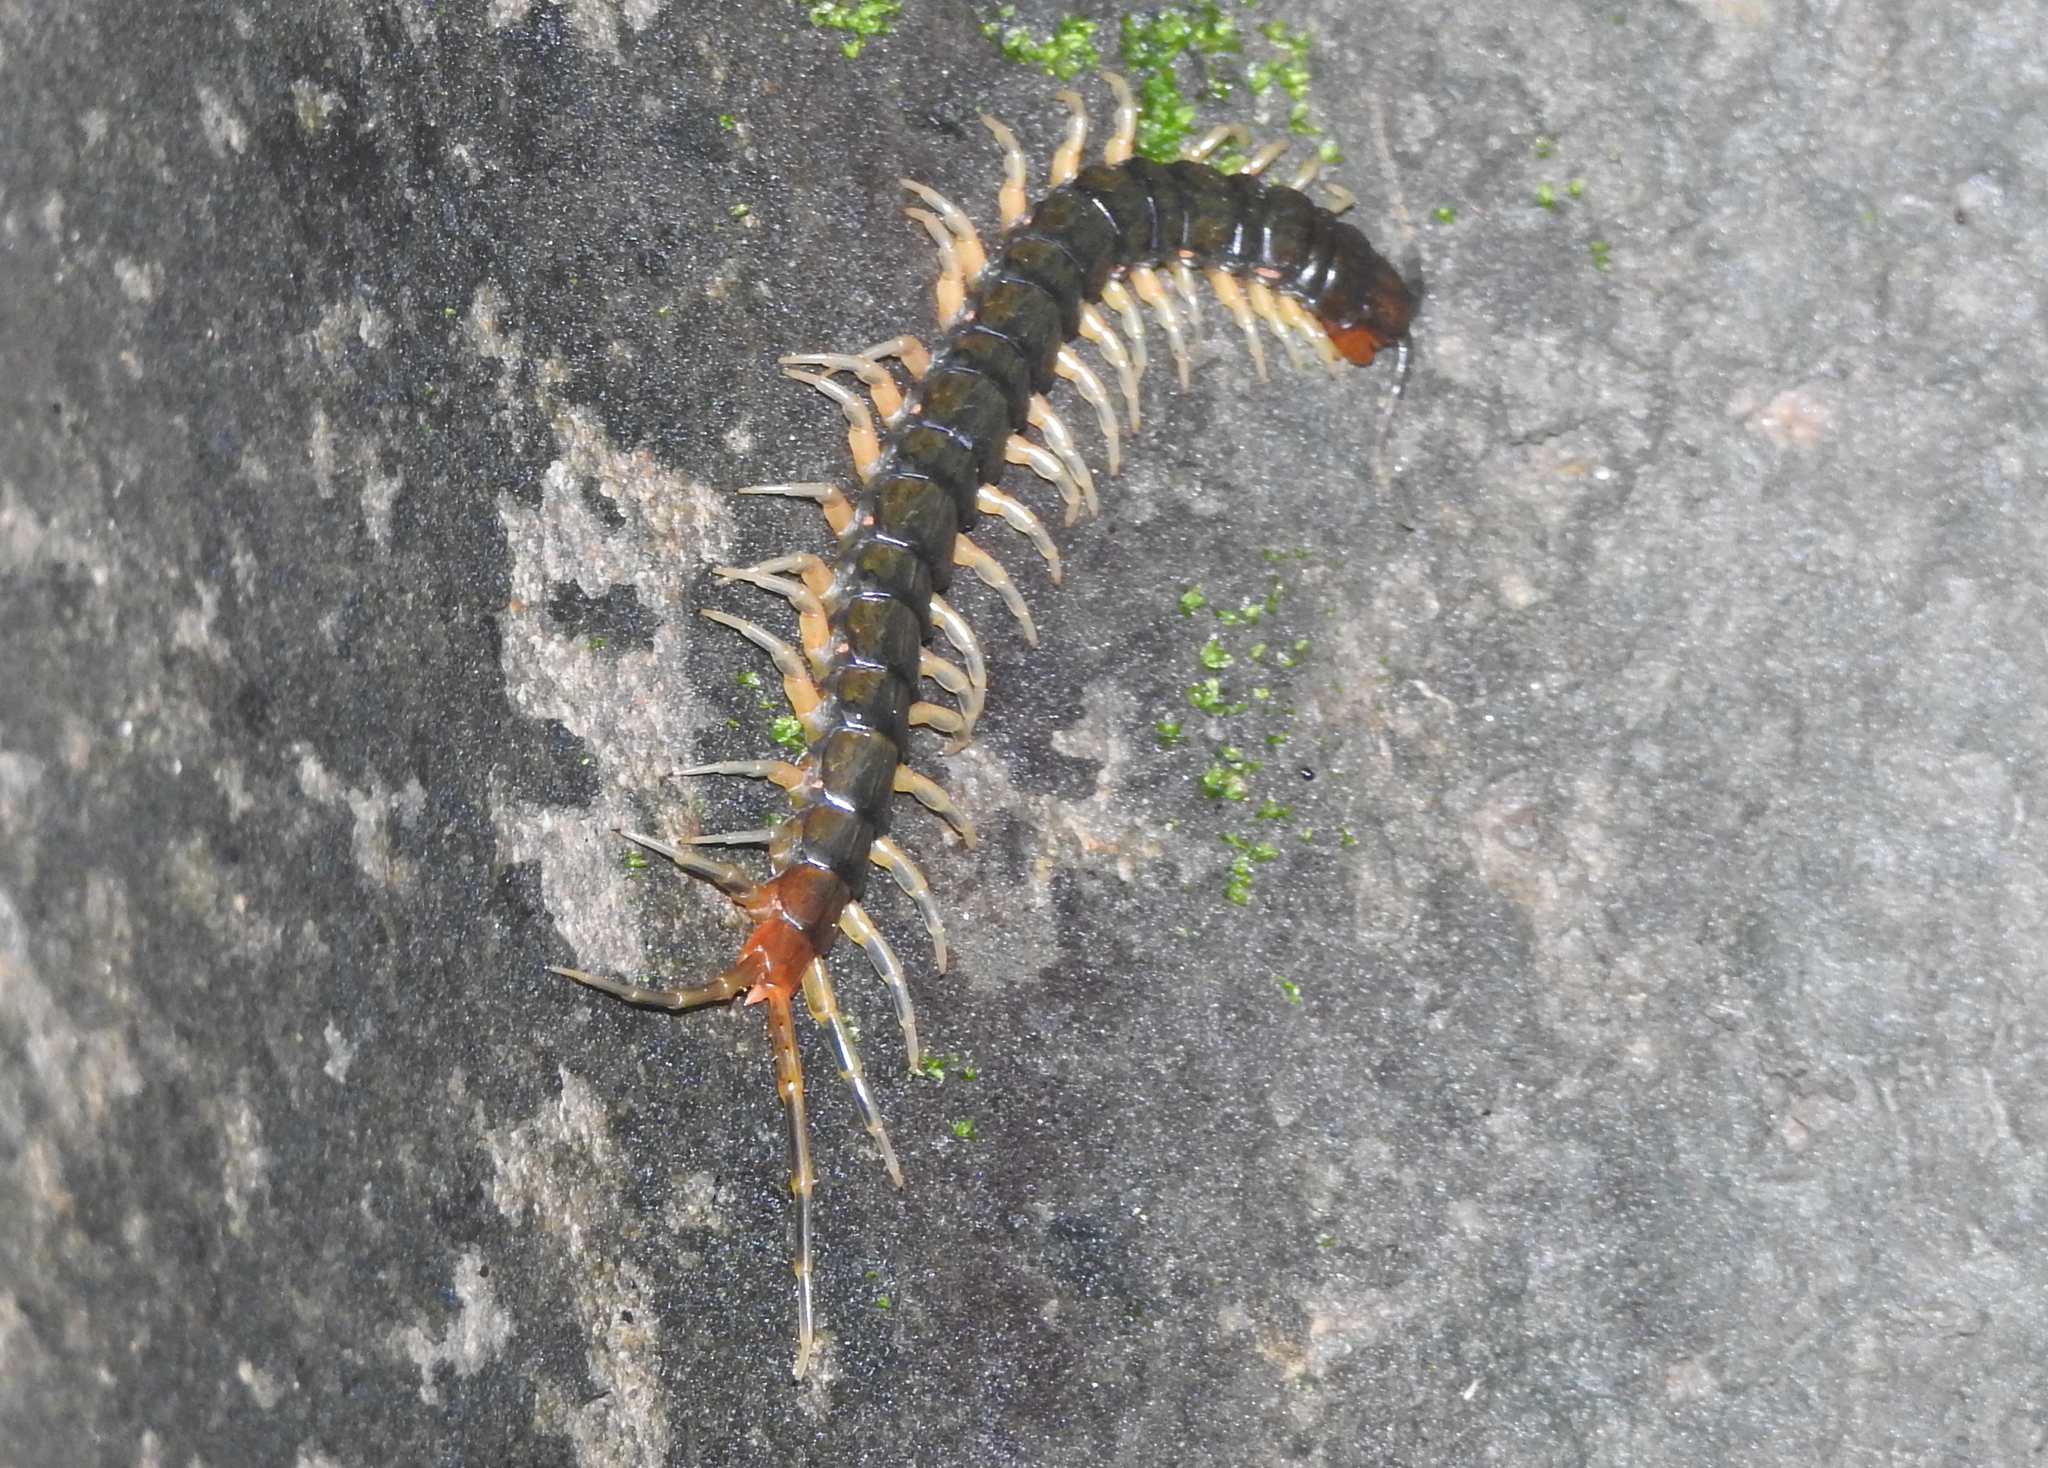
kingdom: Animalia
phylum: Arthropoda
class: Chilopoda
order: Scolopendromorpha
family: Scolopendridae
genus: Rhysida
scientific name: Rhysida longipes
